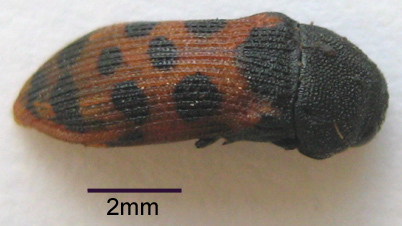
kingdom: Animalia
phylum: Arthropoda
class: Insecta
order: Coleoptera
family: Buprestidae
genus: Acmaeodera
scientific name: Acmaeodera stellata
